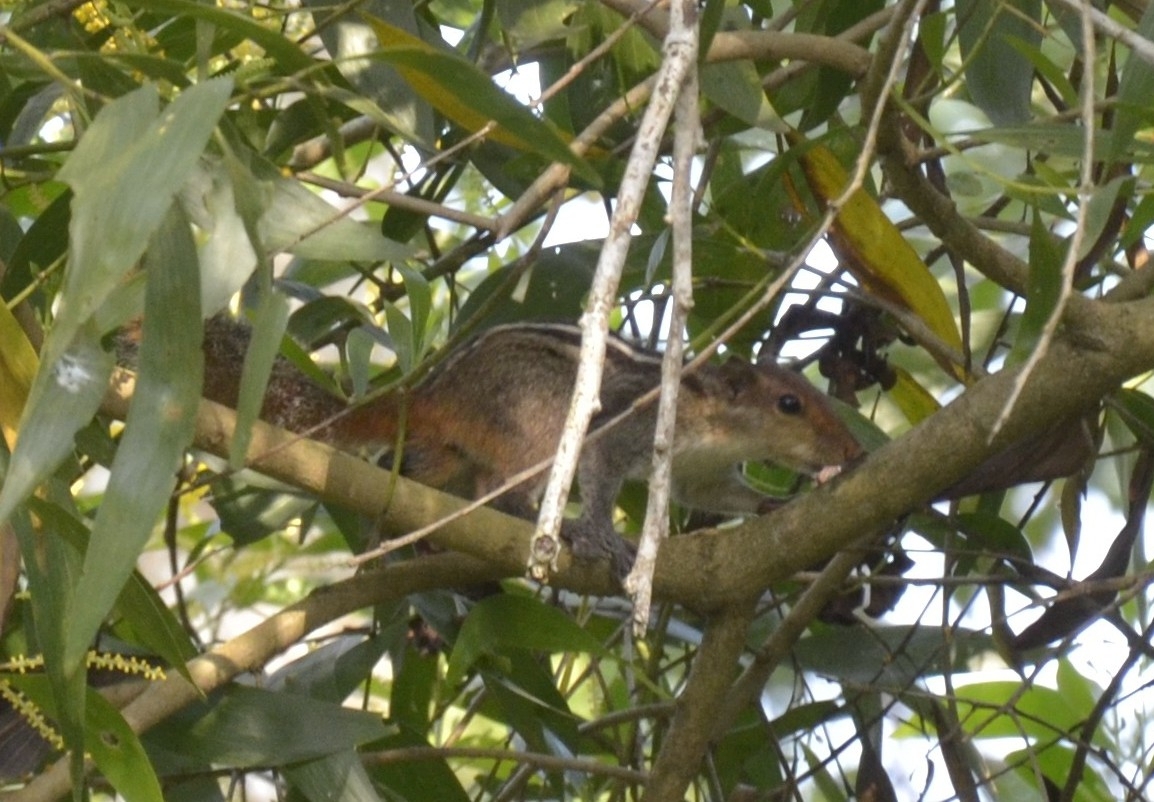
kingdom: Animalia
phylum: Chordata
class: Mammalia
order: Rodentia
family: Sciuridae
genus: Funambulus
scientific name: Funambulus tristriatus
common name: Jungle palm squirrel
